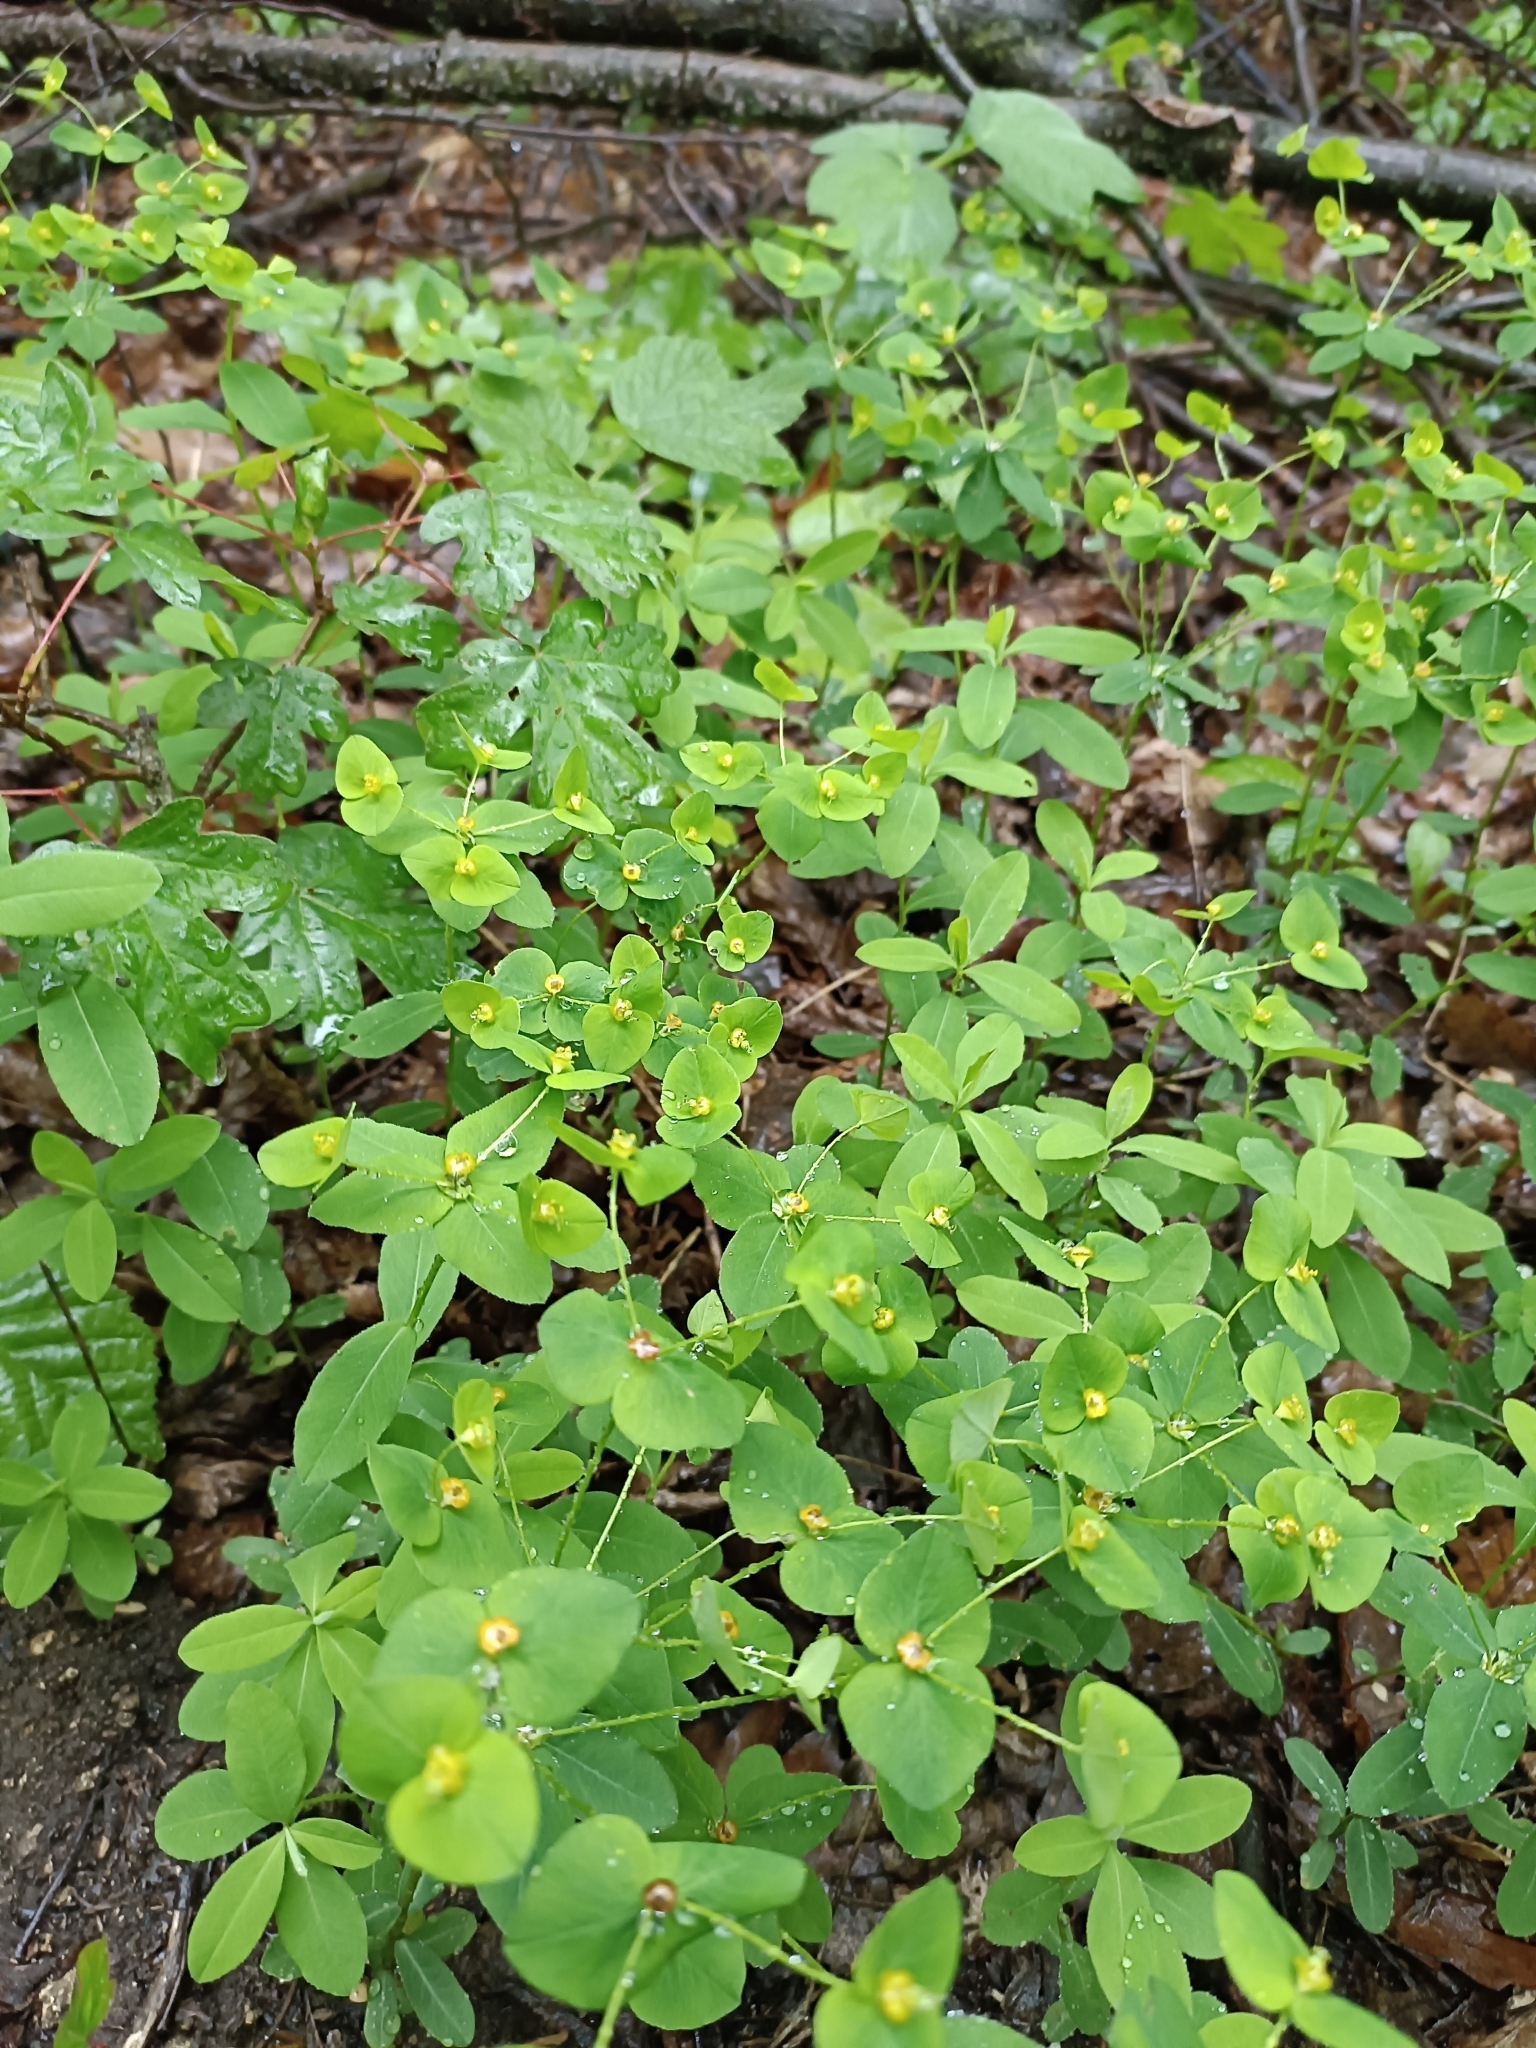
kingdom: Plantae
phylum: Tracheophyta
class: Magnoliopsida
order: Malpighiales
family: Euphorbiaceae
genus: Euphorbia
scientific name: Euphorbia dulcis
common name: Sweet spurge
